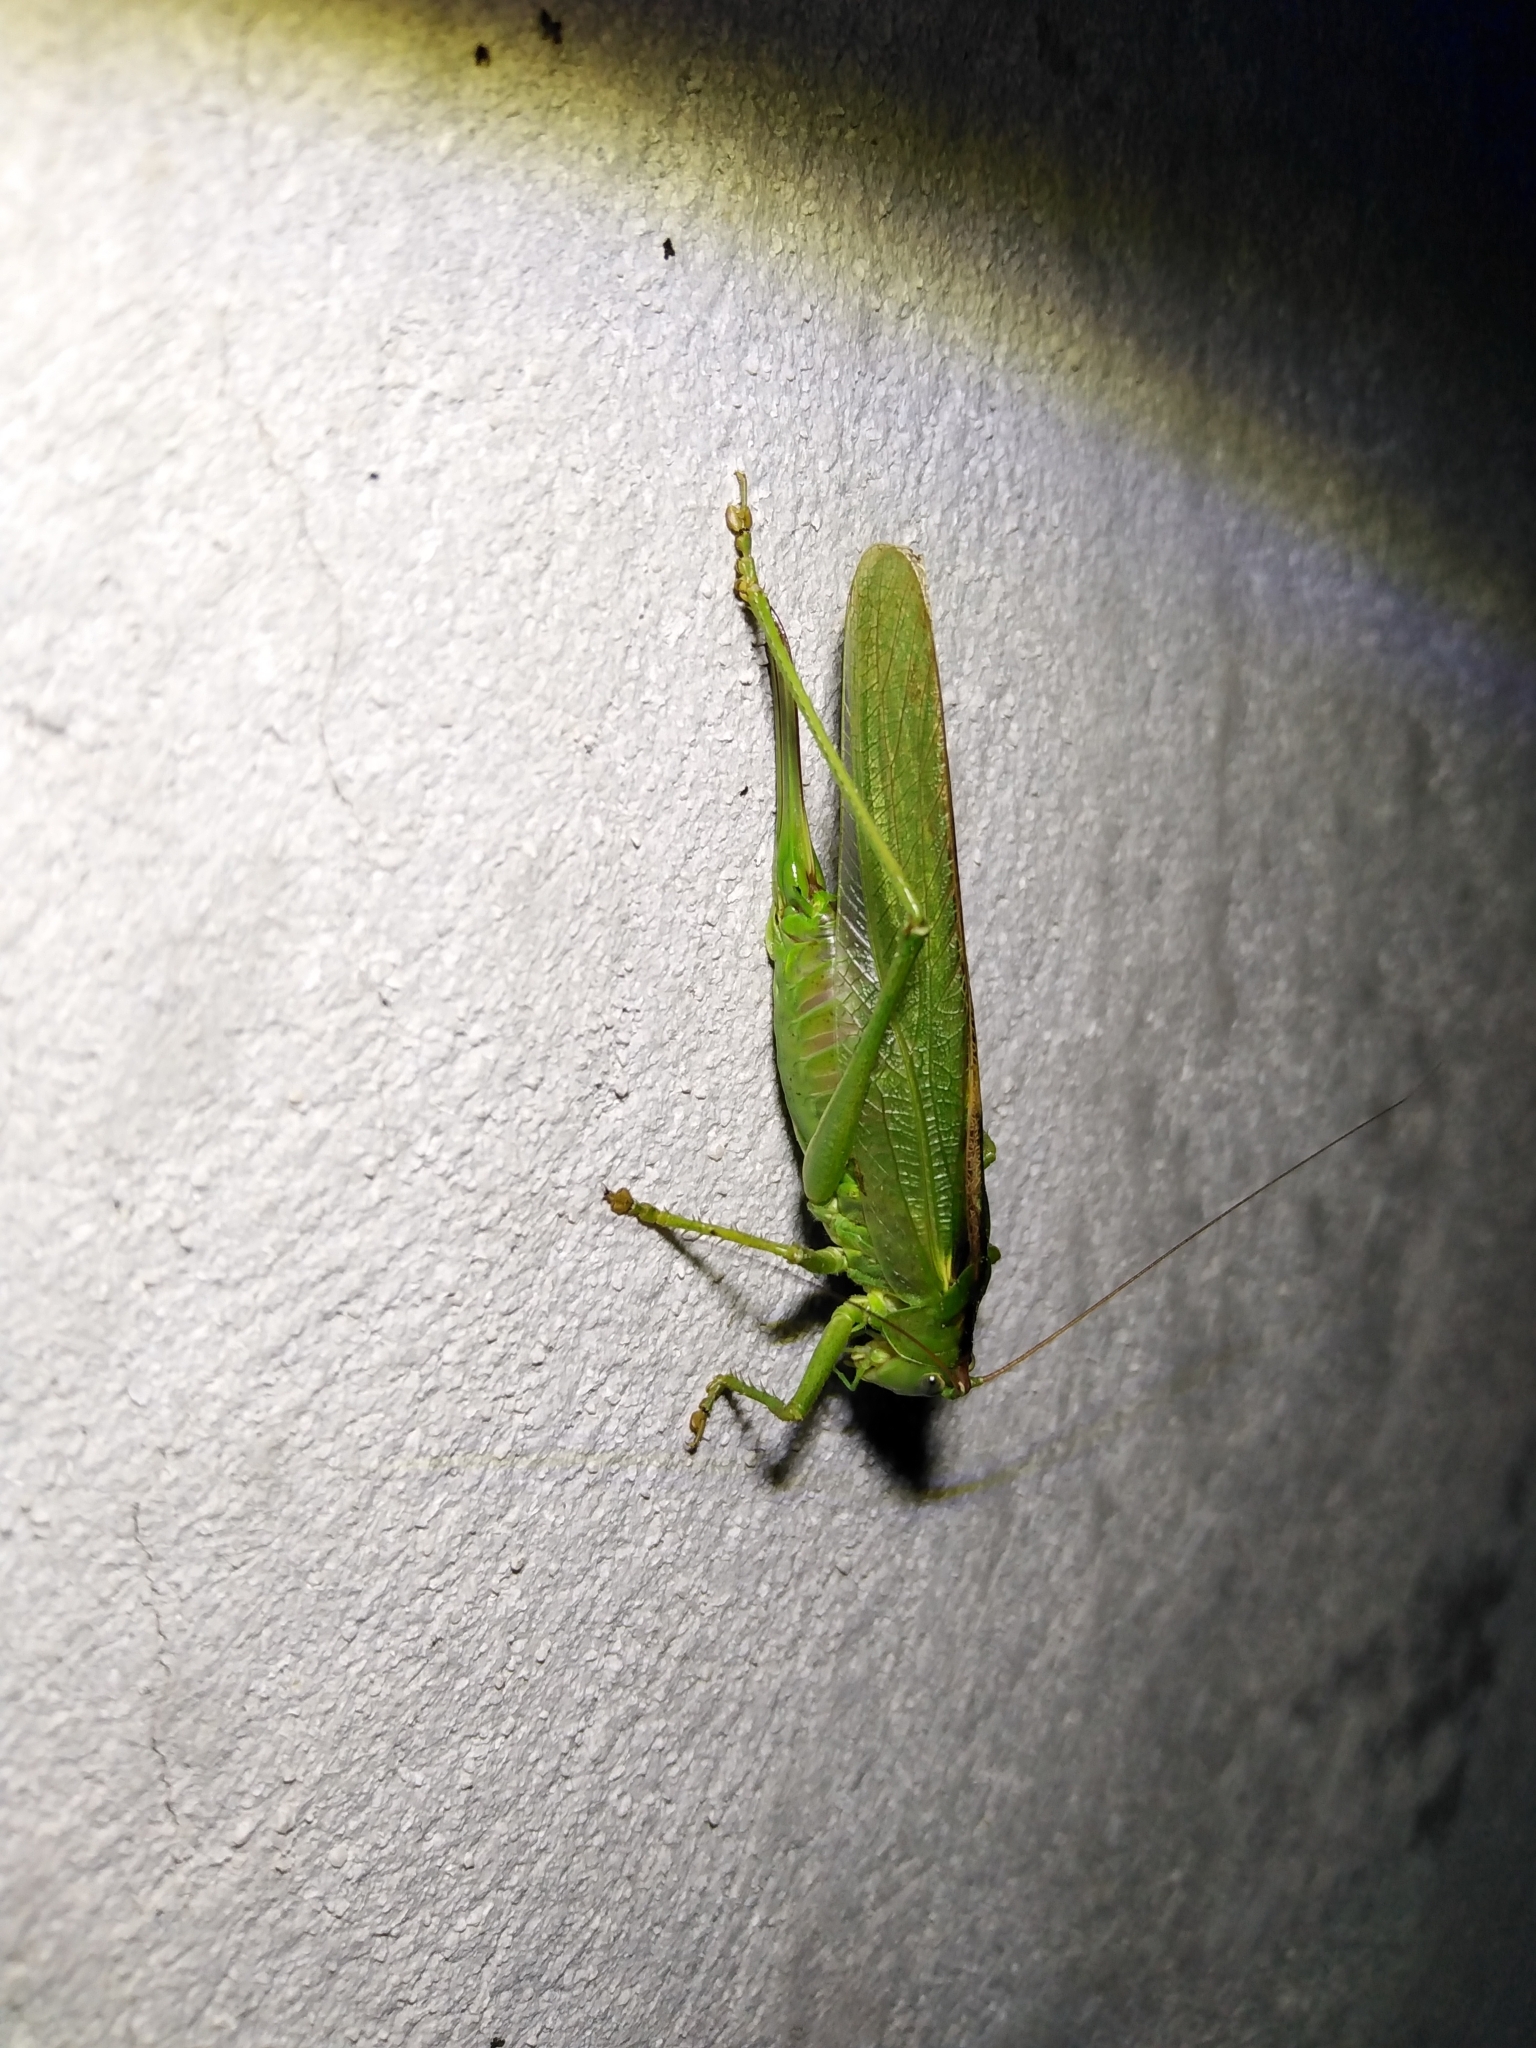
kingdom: Animalia
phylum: Arthropoda
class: Insecta
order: Orthoptera
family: Tettigoniidae
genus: Tettigonia
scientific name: Tettigonia viridissima
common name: Great green bush-cricket
